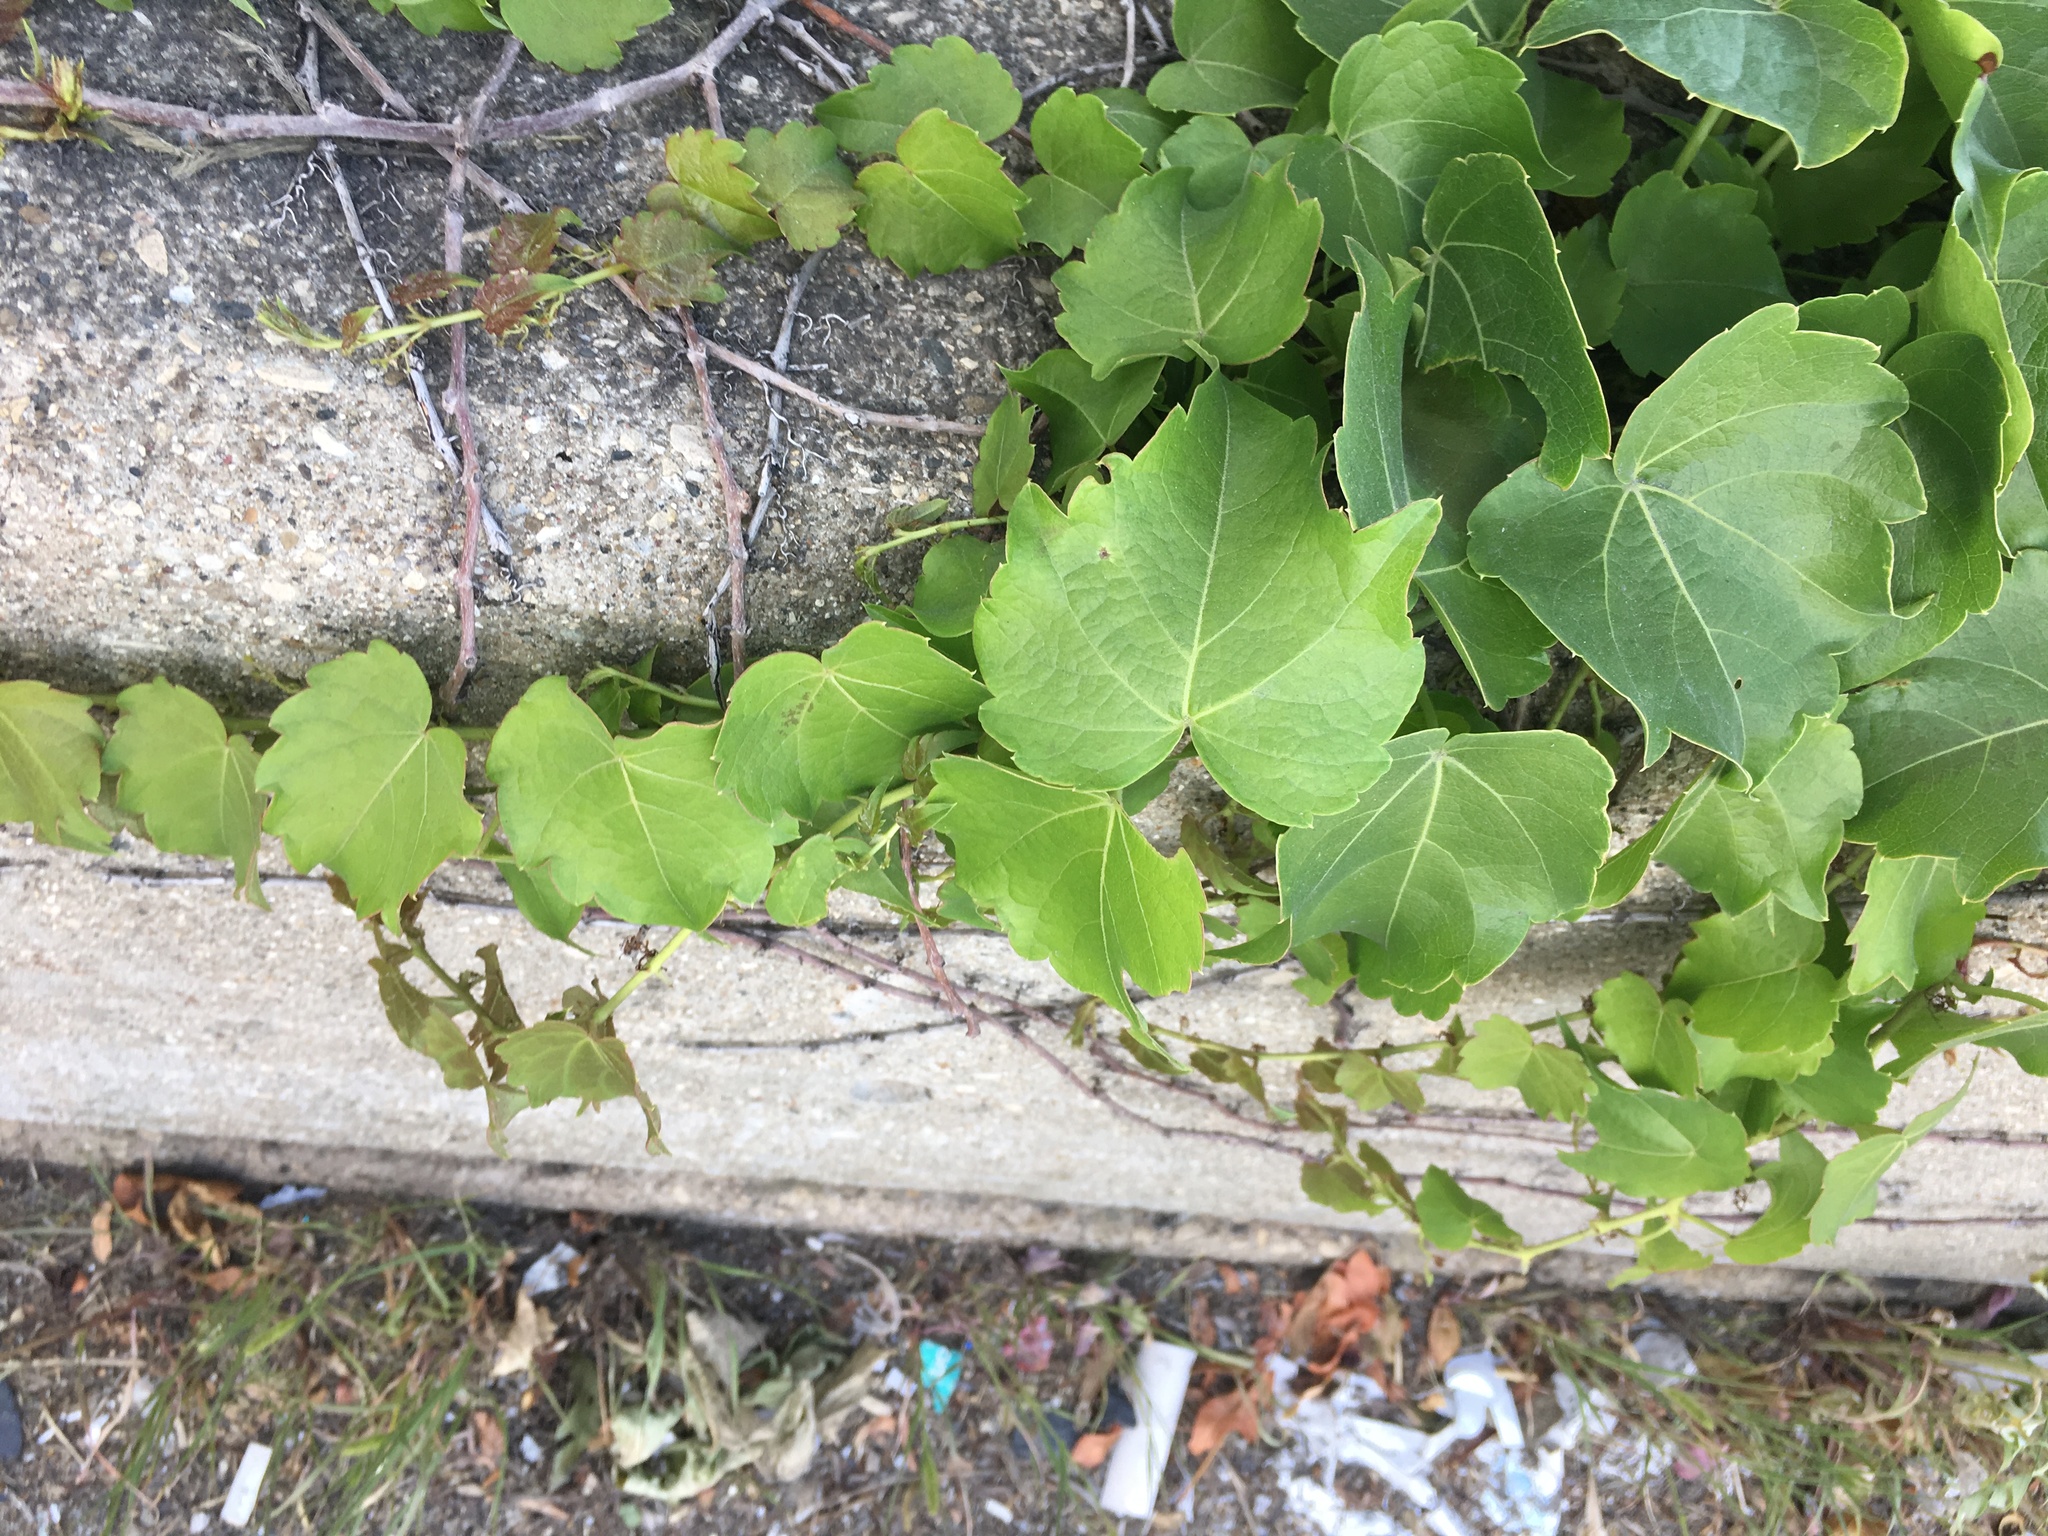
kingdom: Plantae
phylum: Tracheophyta
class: Magnoliopsida
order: Vitales
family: Vitaceae
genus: Parthenocissus
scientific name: Parthenocissus tricuspidata
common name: Boston ivy
